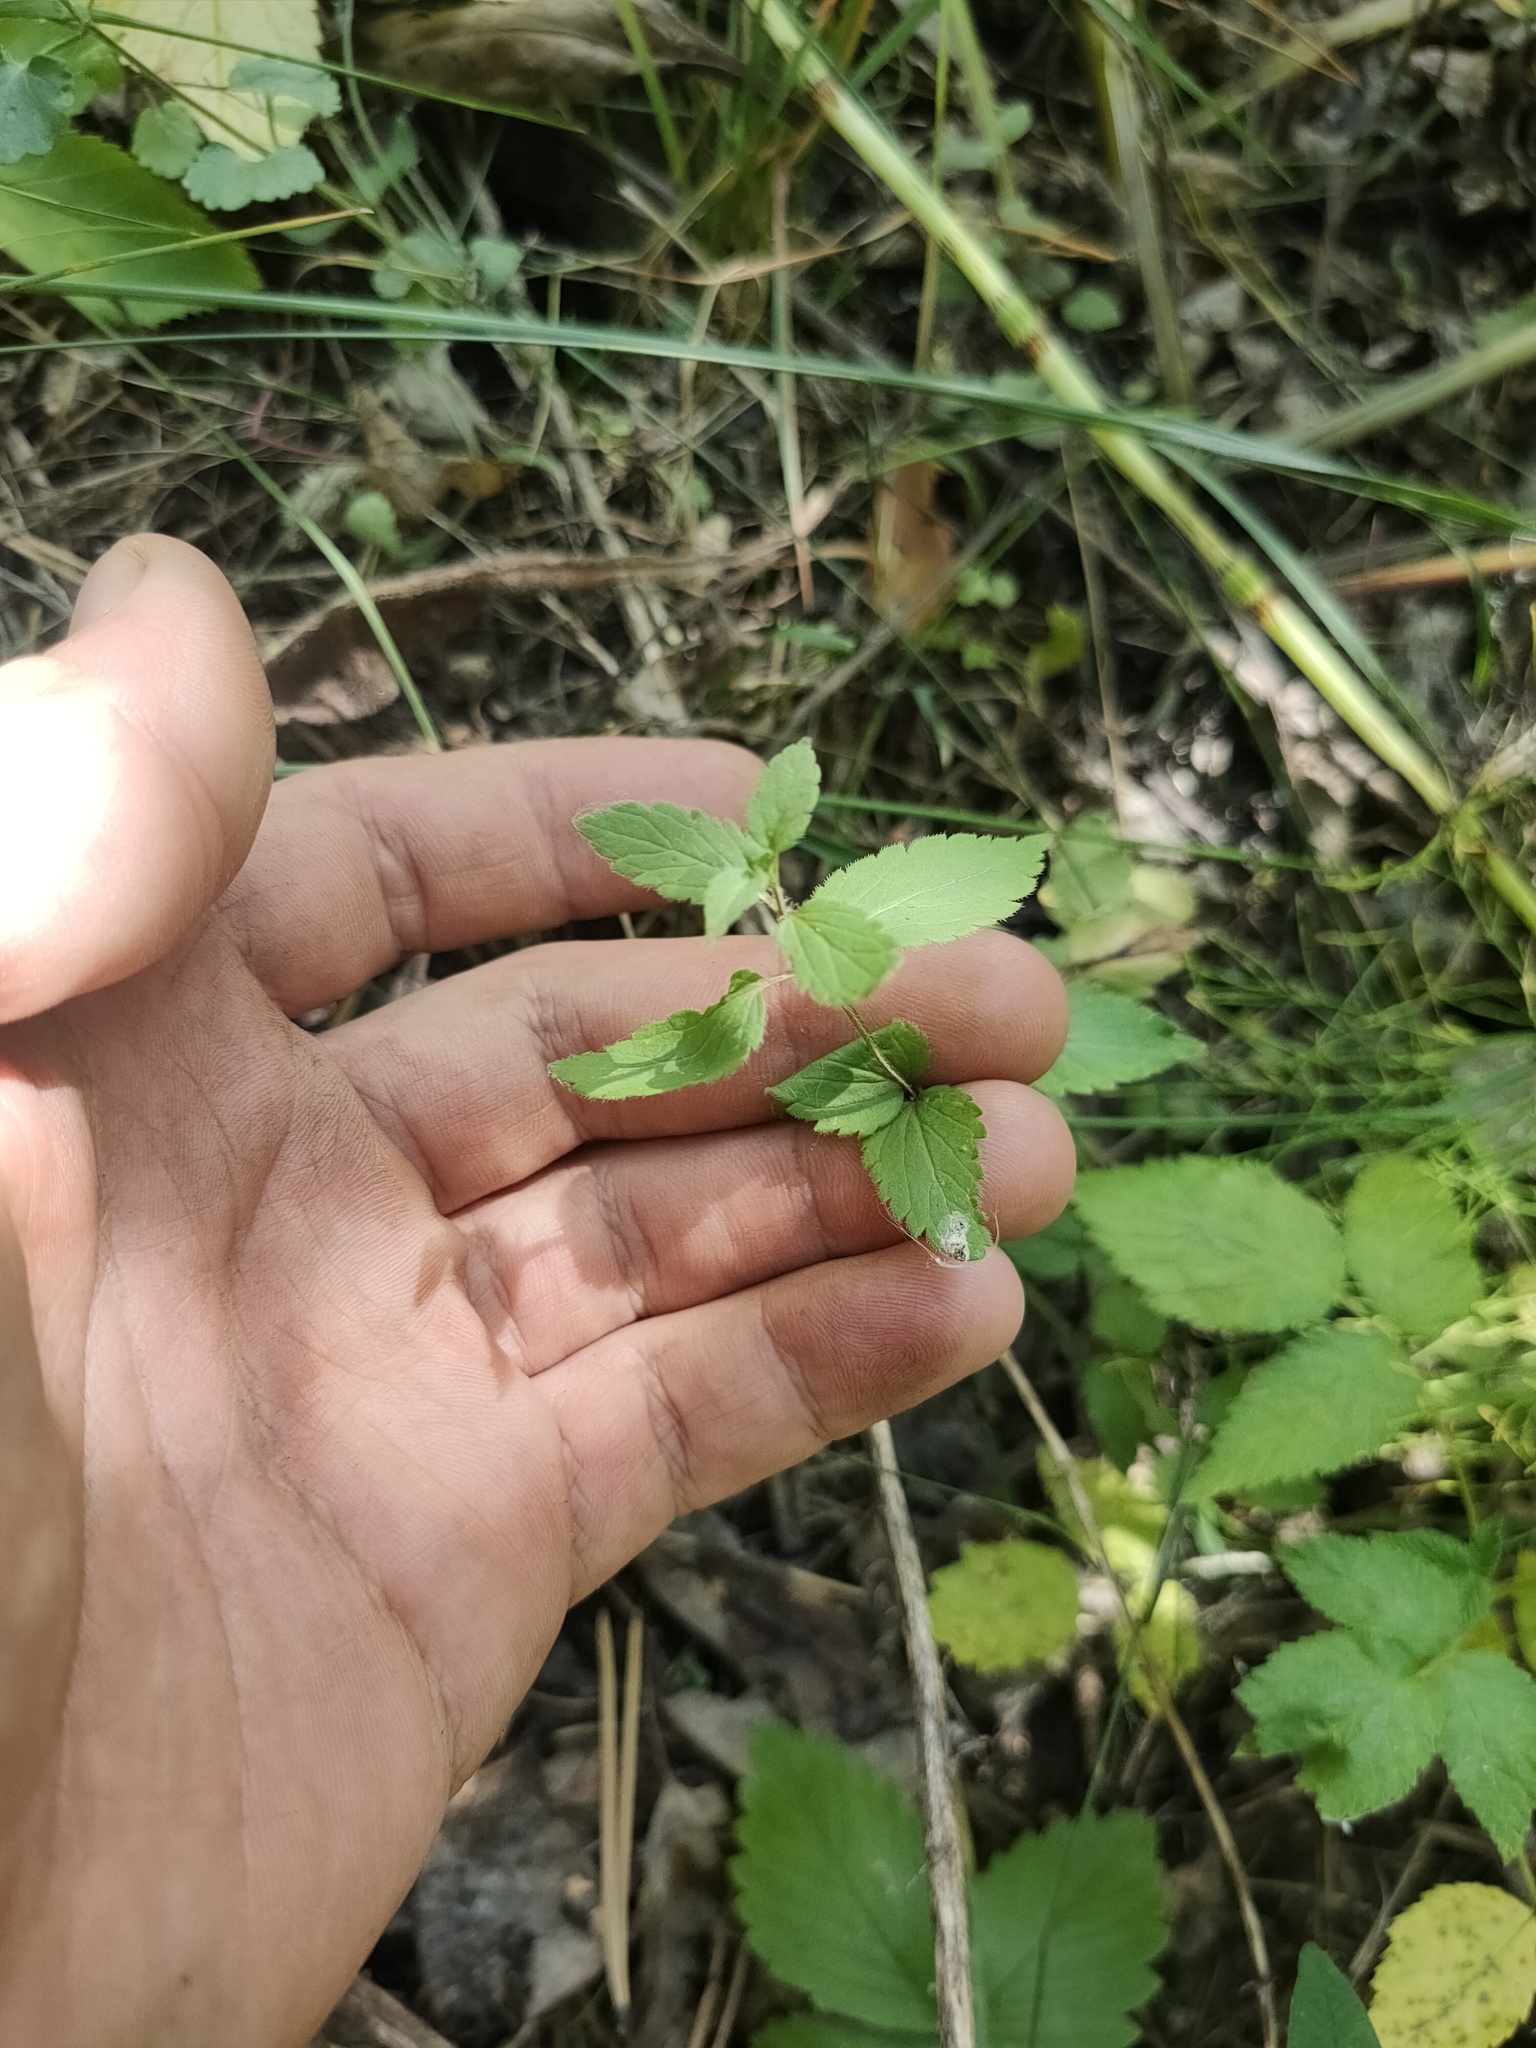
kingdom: Plantae
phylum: Tracheophyta
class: Magnoliopsida
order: Lamiales
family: Plantaginaceae
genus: Veronica
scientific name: Veronica chamaedrys
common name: Germander speedwell
